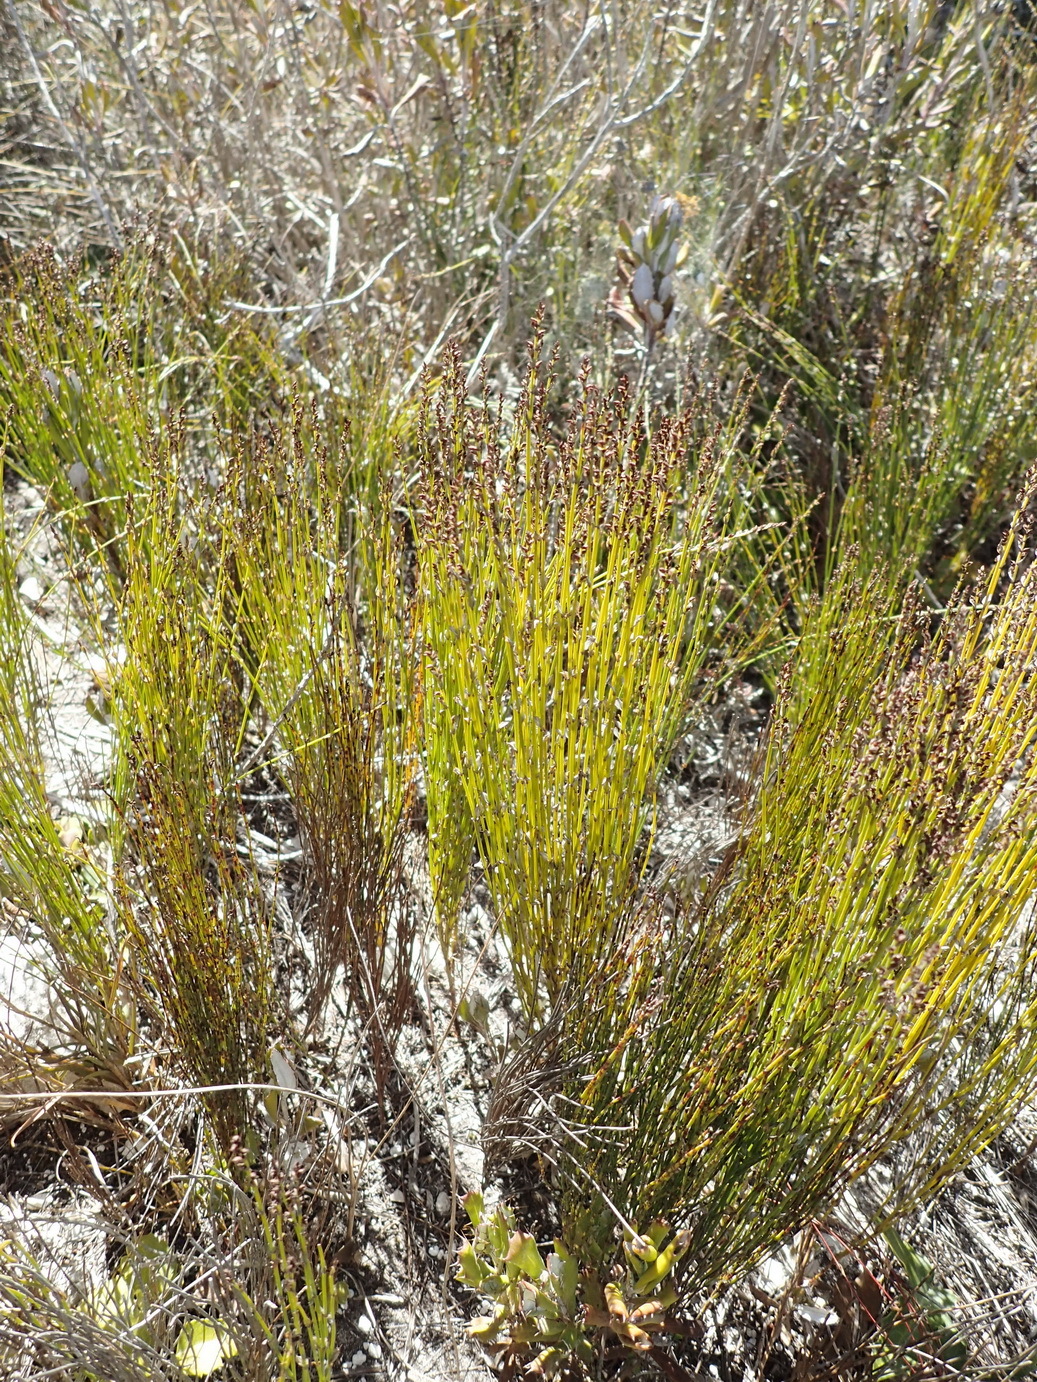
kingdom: Plantae
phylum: Tracheophyta
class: Liliopsida
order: Poales
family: Restionaceae
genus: Elegia
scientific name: Elegia microcarpa
